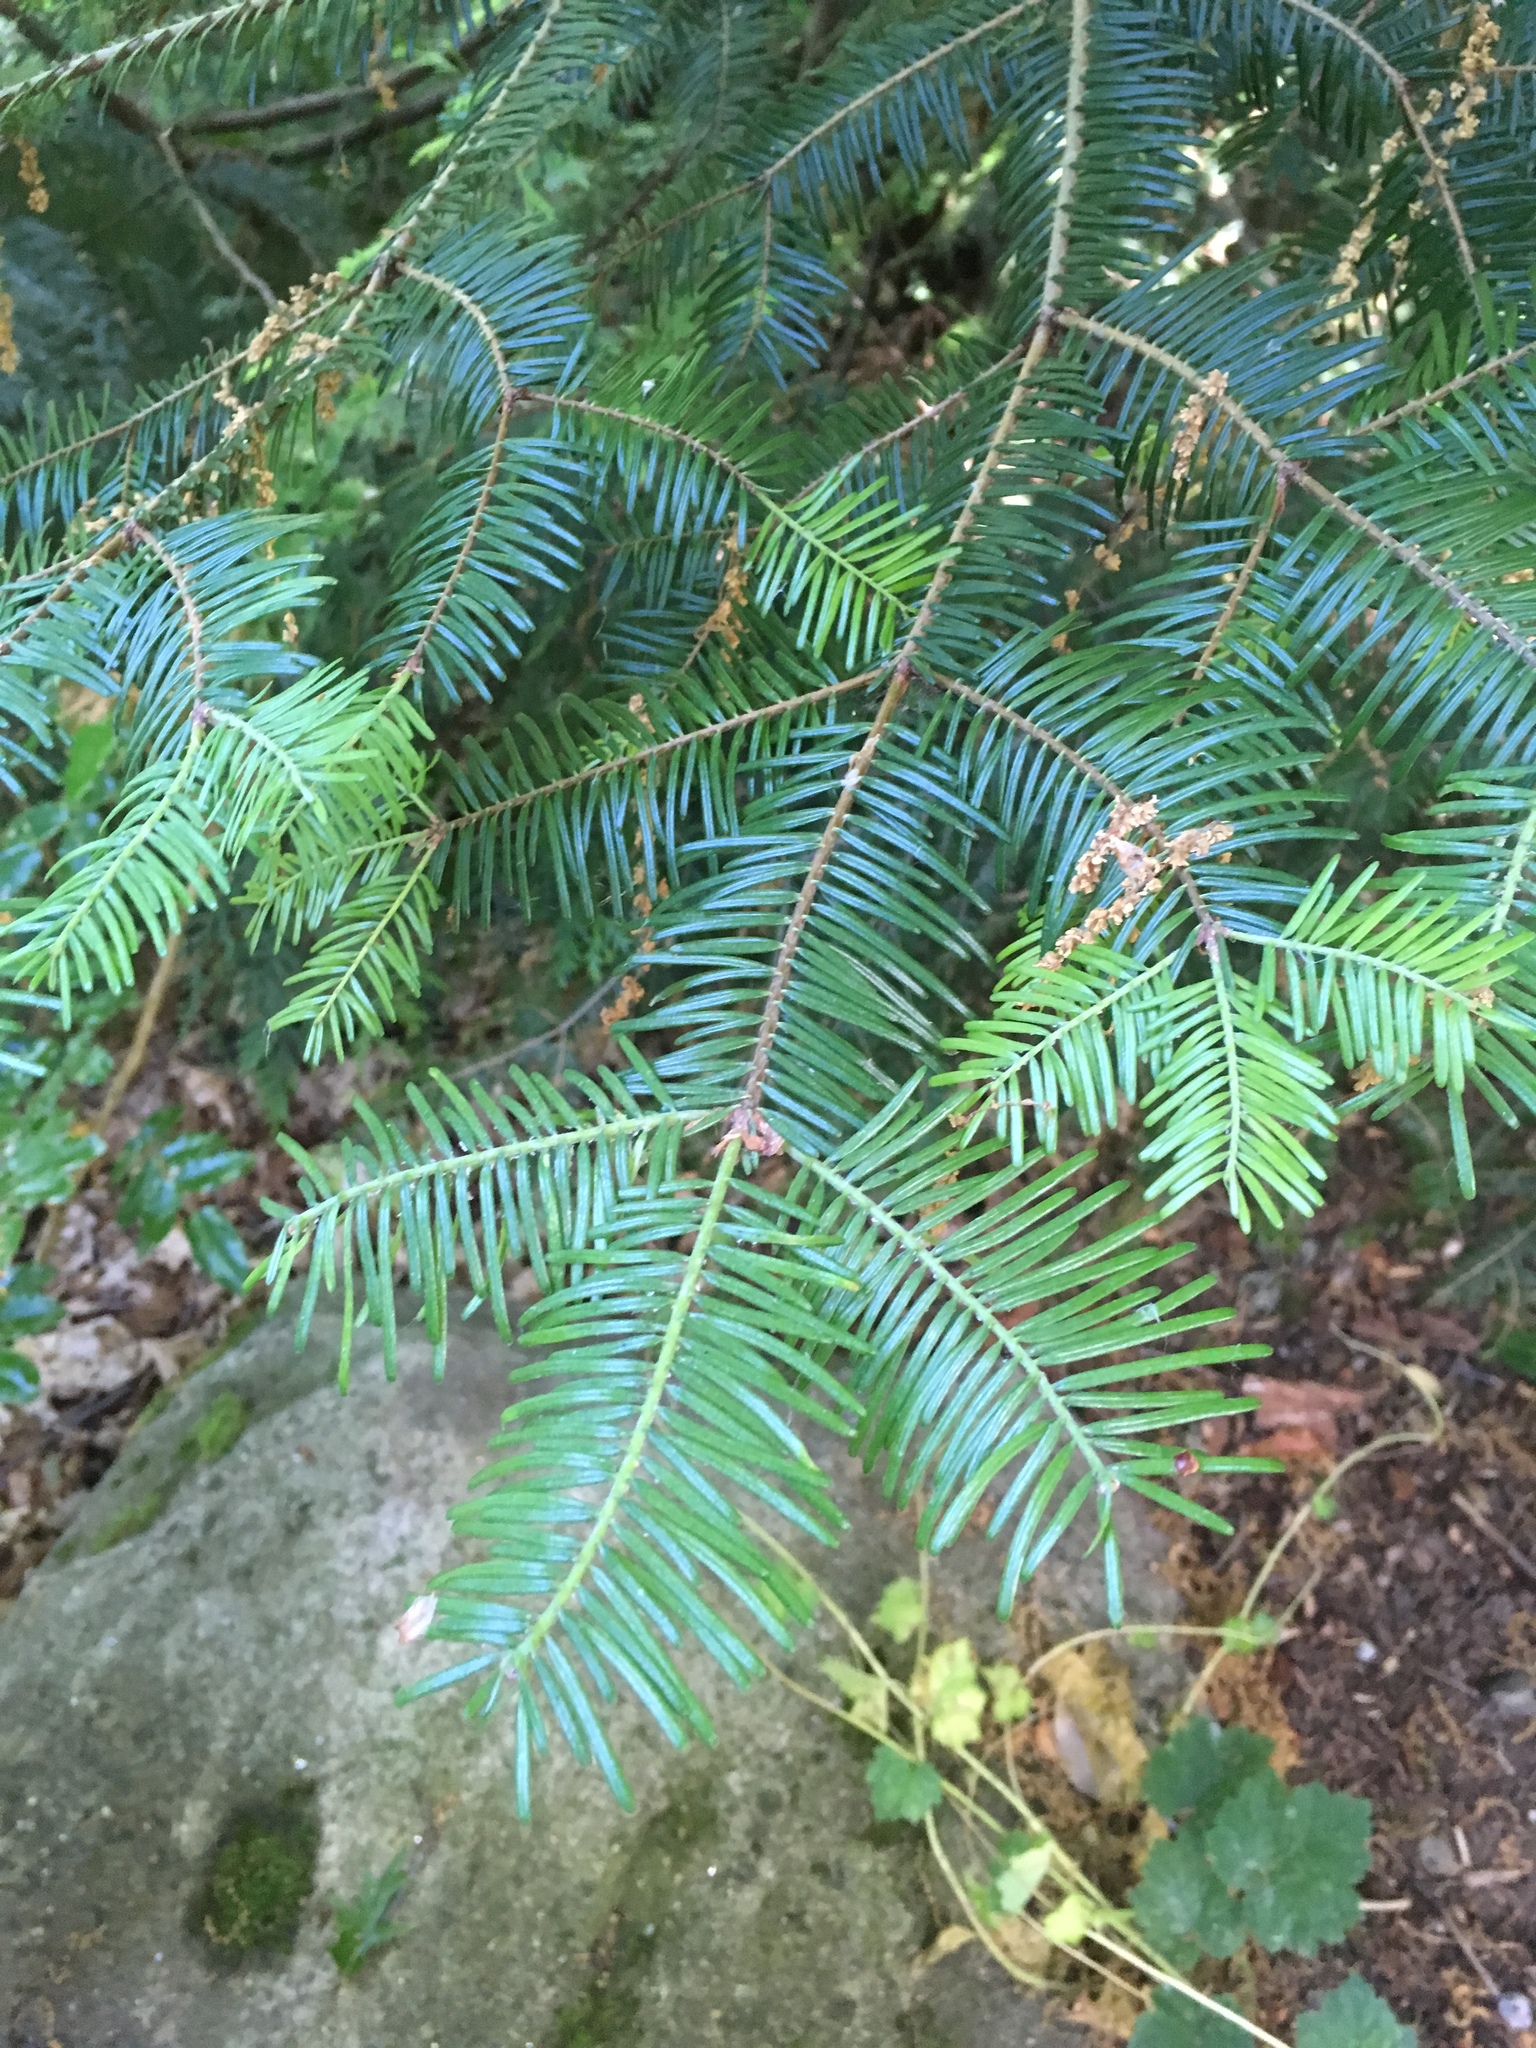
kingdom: Plantae
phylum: Tracheophyta
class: Pinopsida
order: Pinales
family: Pinaceae
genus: Abies
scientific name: Abies grandis
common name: Giant fir
